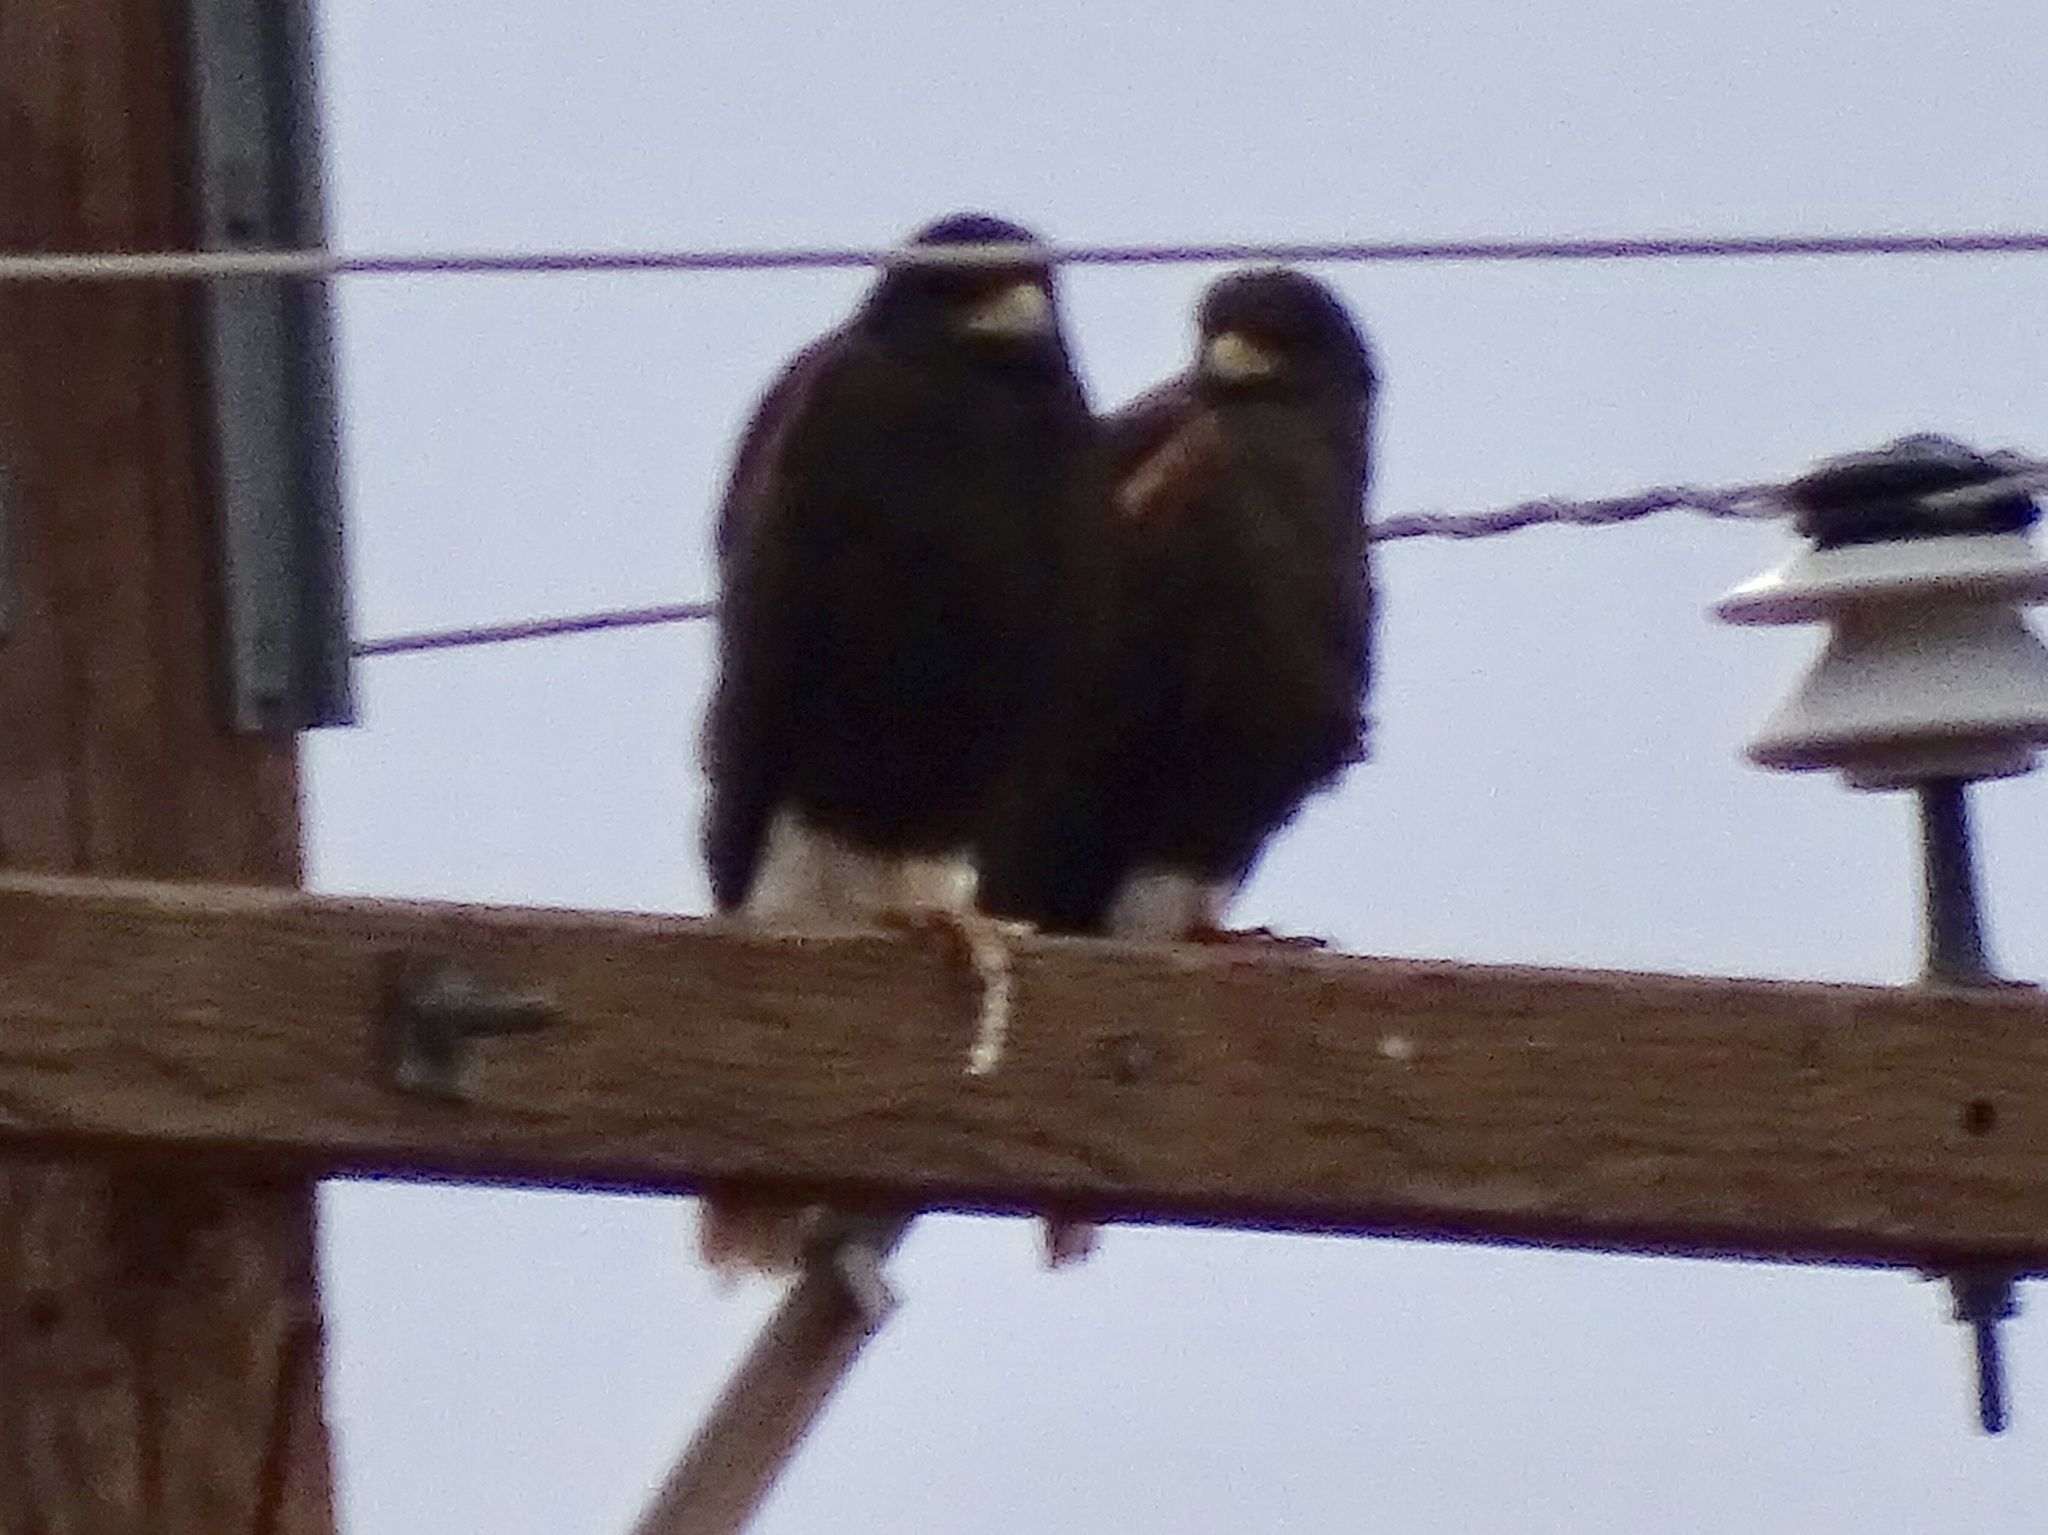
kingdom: Animalia
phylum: Chordata
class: Aves
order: Accipitriformes
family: Accipitridae
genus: Parabuteo
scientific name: Parabuteo unicinctus
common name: Harris's hawk
